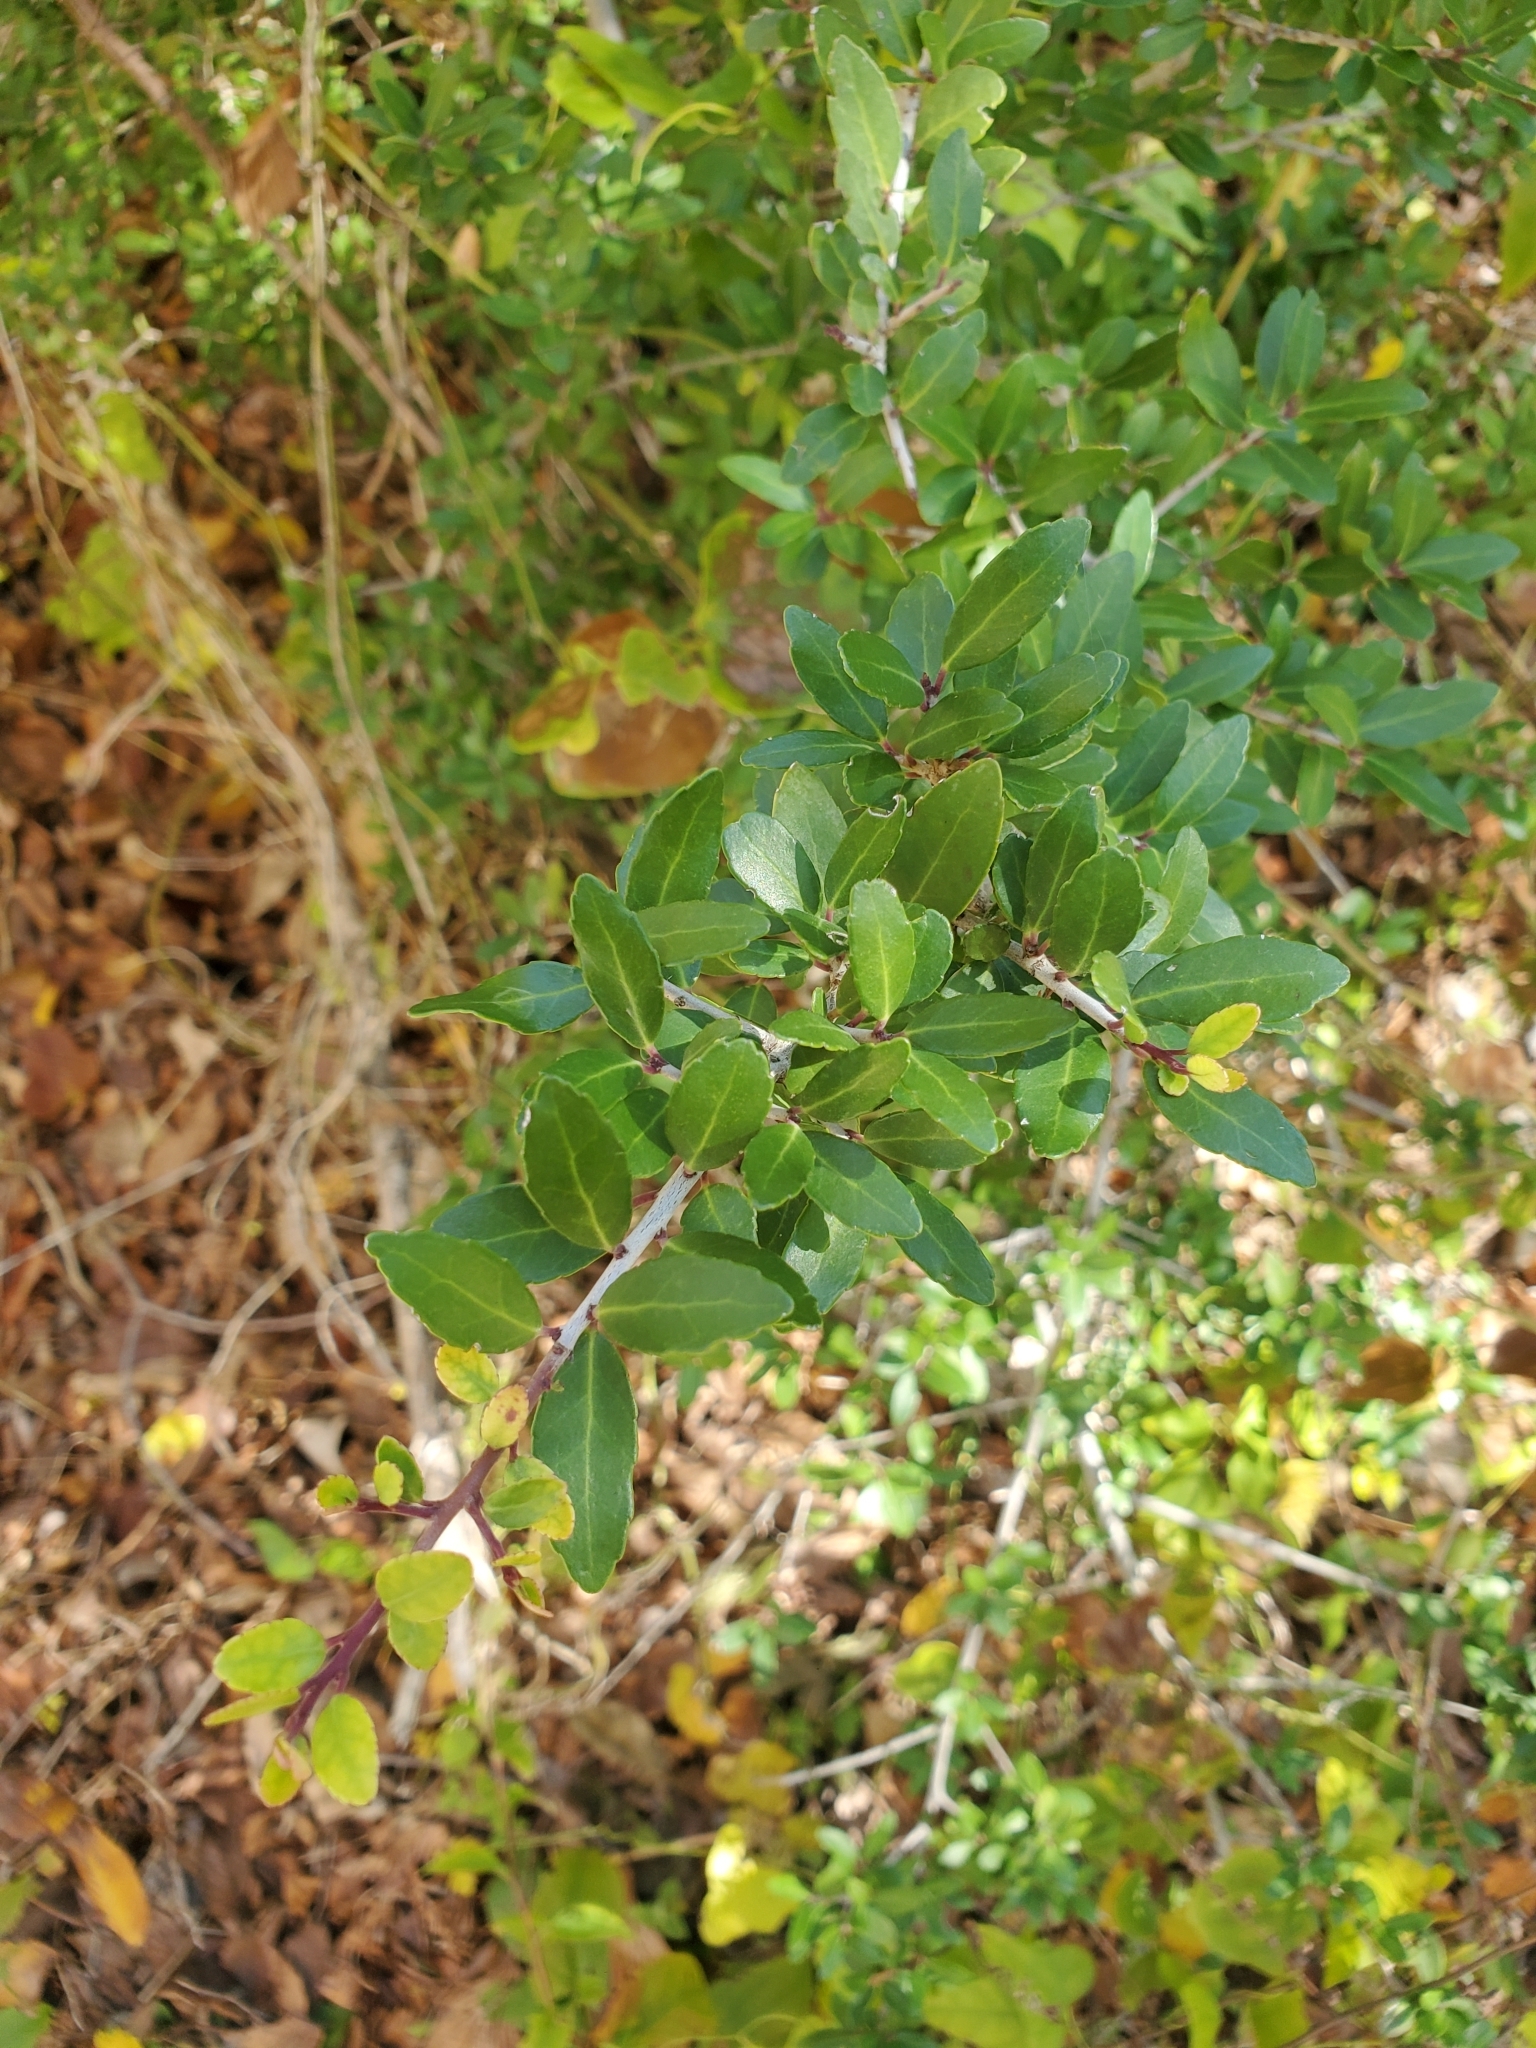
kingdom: Plantae
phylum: Tracheophyta
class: Magnoliopsida
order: Aquifoliales
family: Aquifoliaceae
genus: Ilex
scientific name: Ilex vomitoria
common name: Yaupon holly
